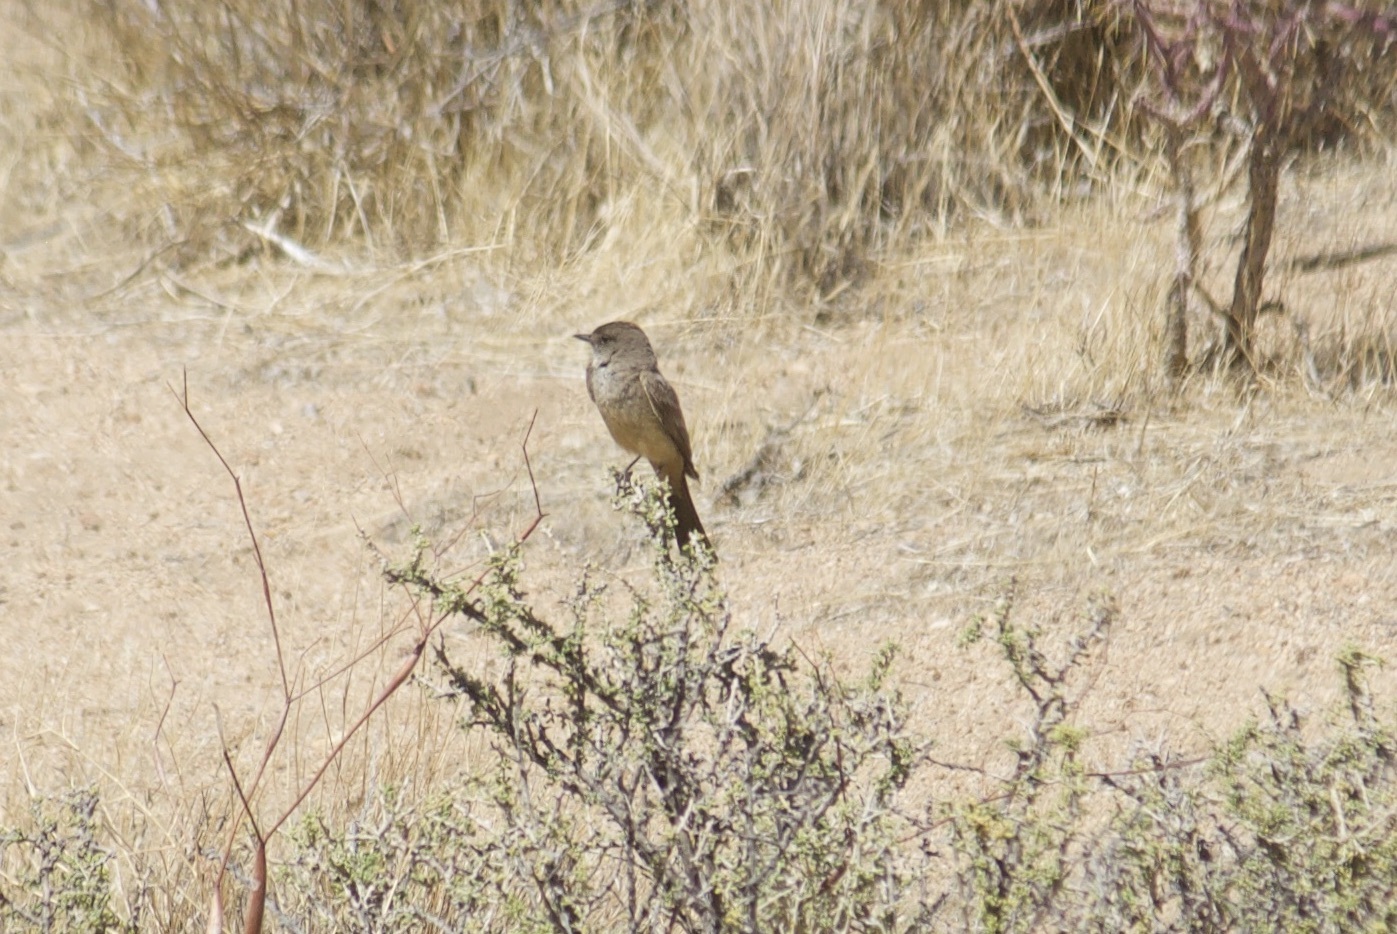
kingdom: Animalia
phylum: Chordata
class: Aves
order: Passeriformes
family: Tyrannidae
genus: Sayornis
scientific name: Sayornis saya
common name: Say's phoebe
